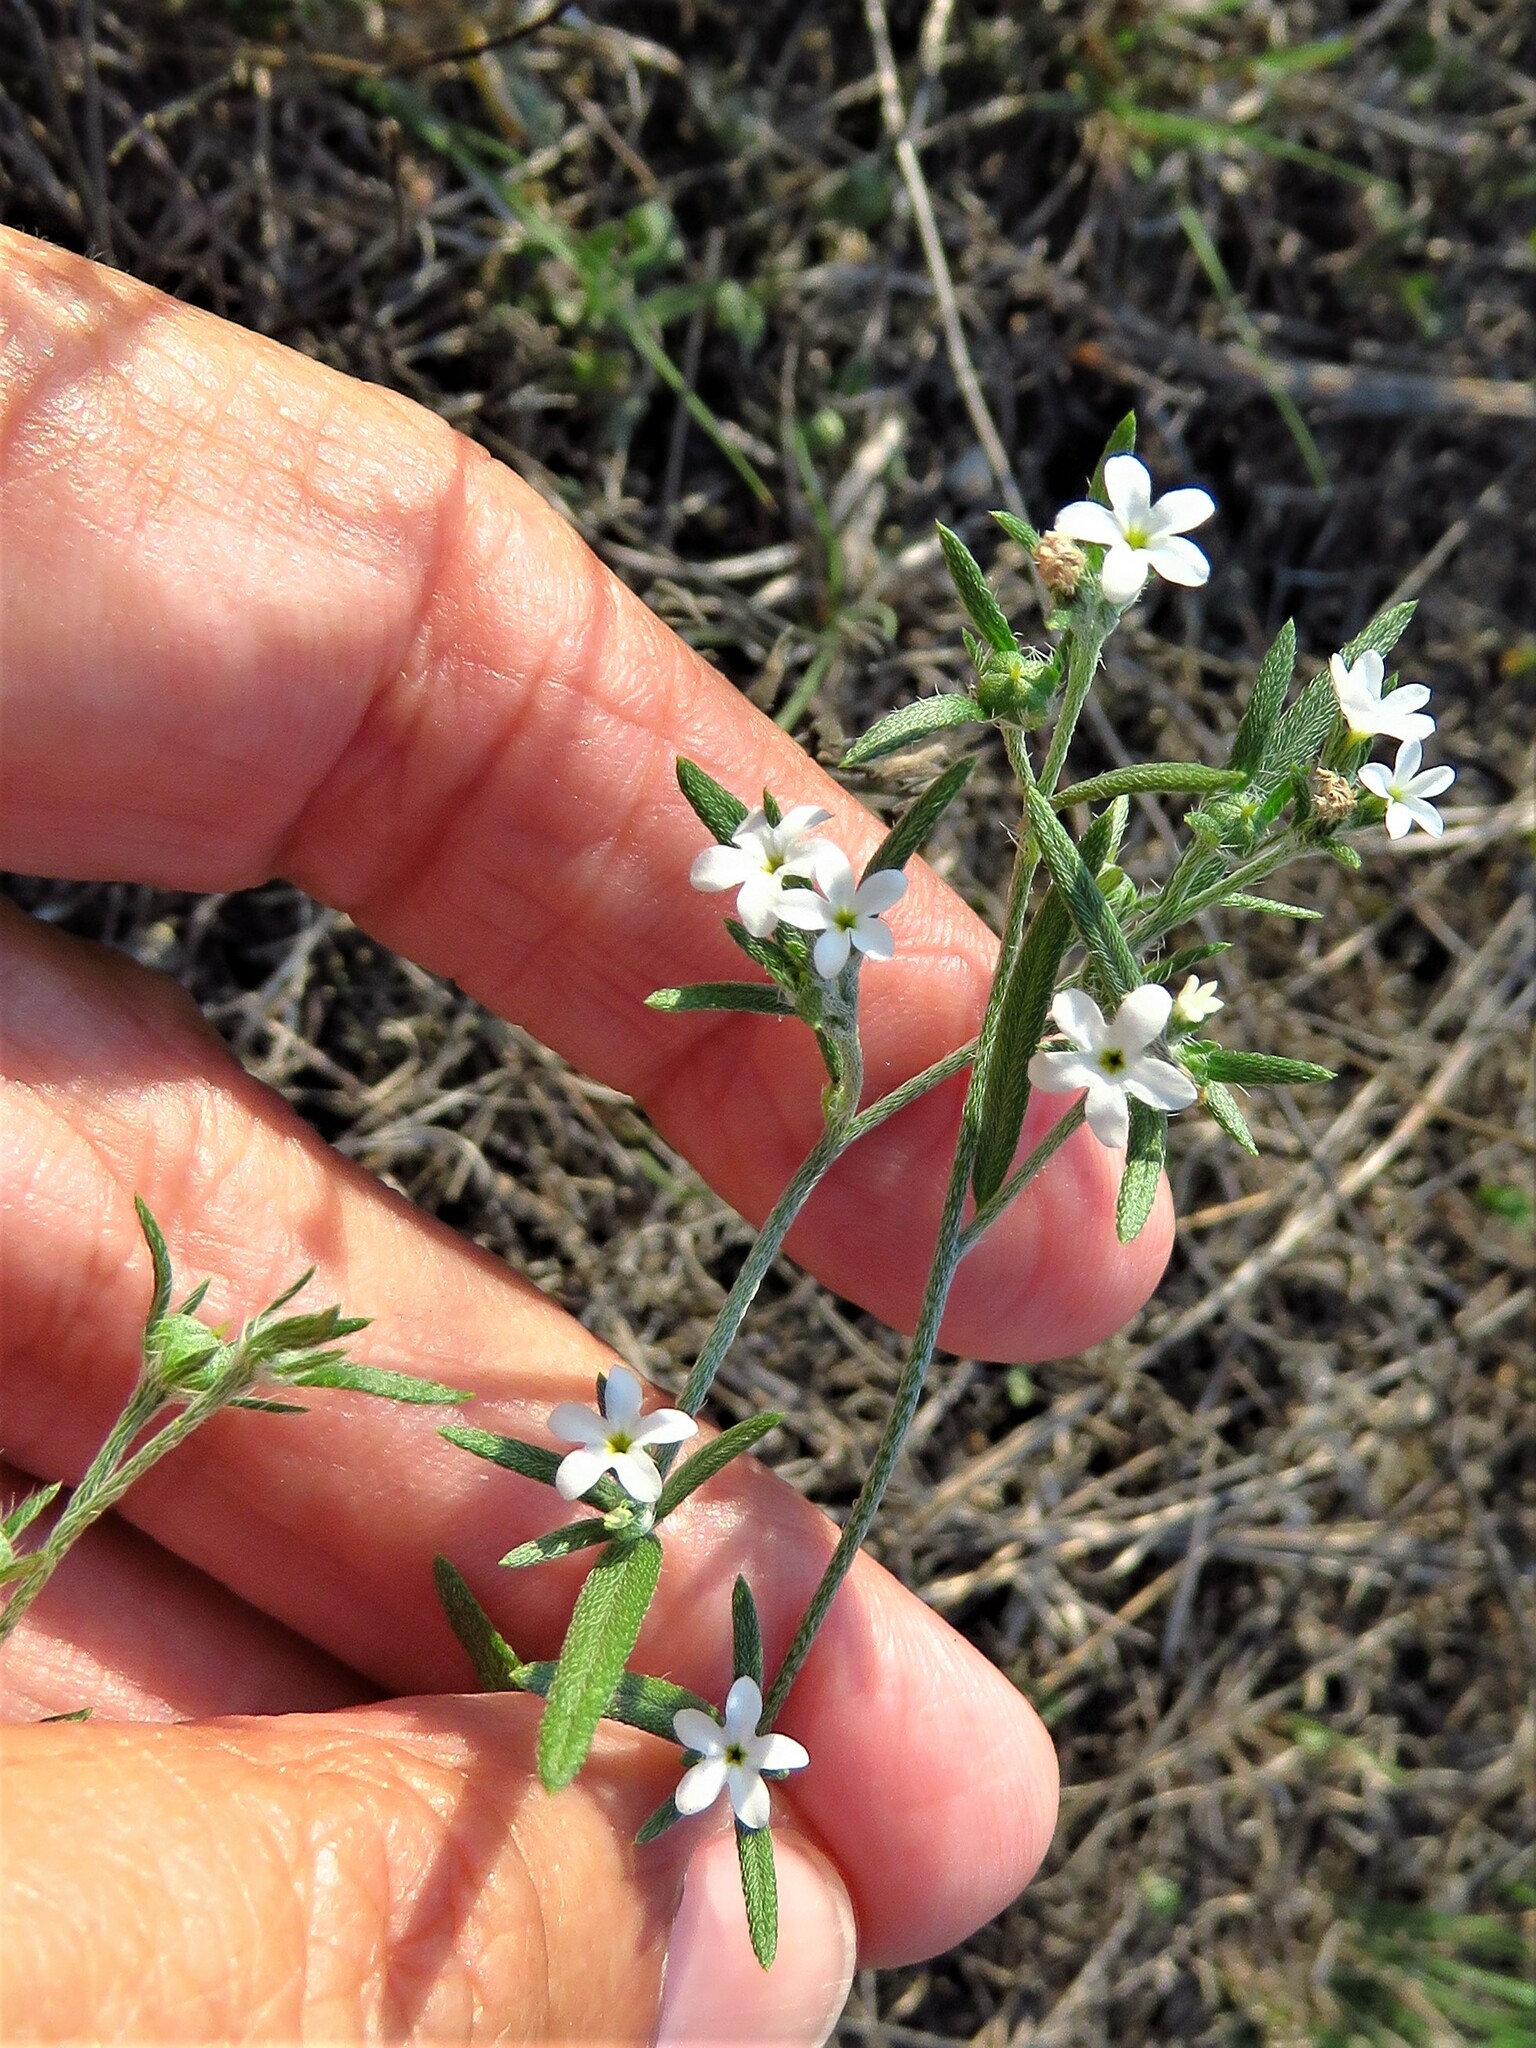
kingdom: Plantae
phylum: Tracheophyta
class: Magnoliopsida
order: Boraginales
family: Heliotropiaceae
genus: Euploca
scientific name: Euploca tenella
